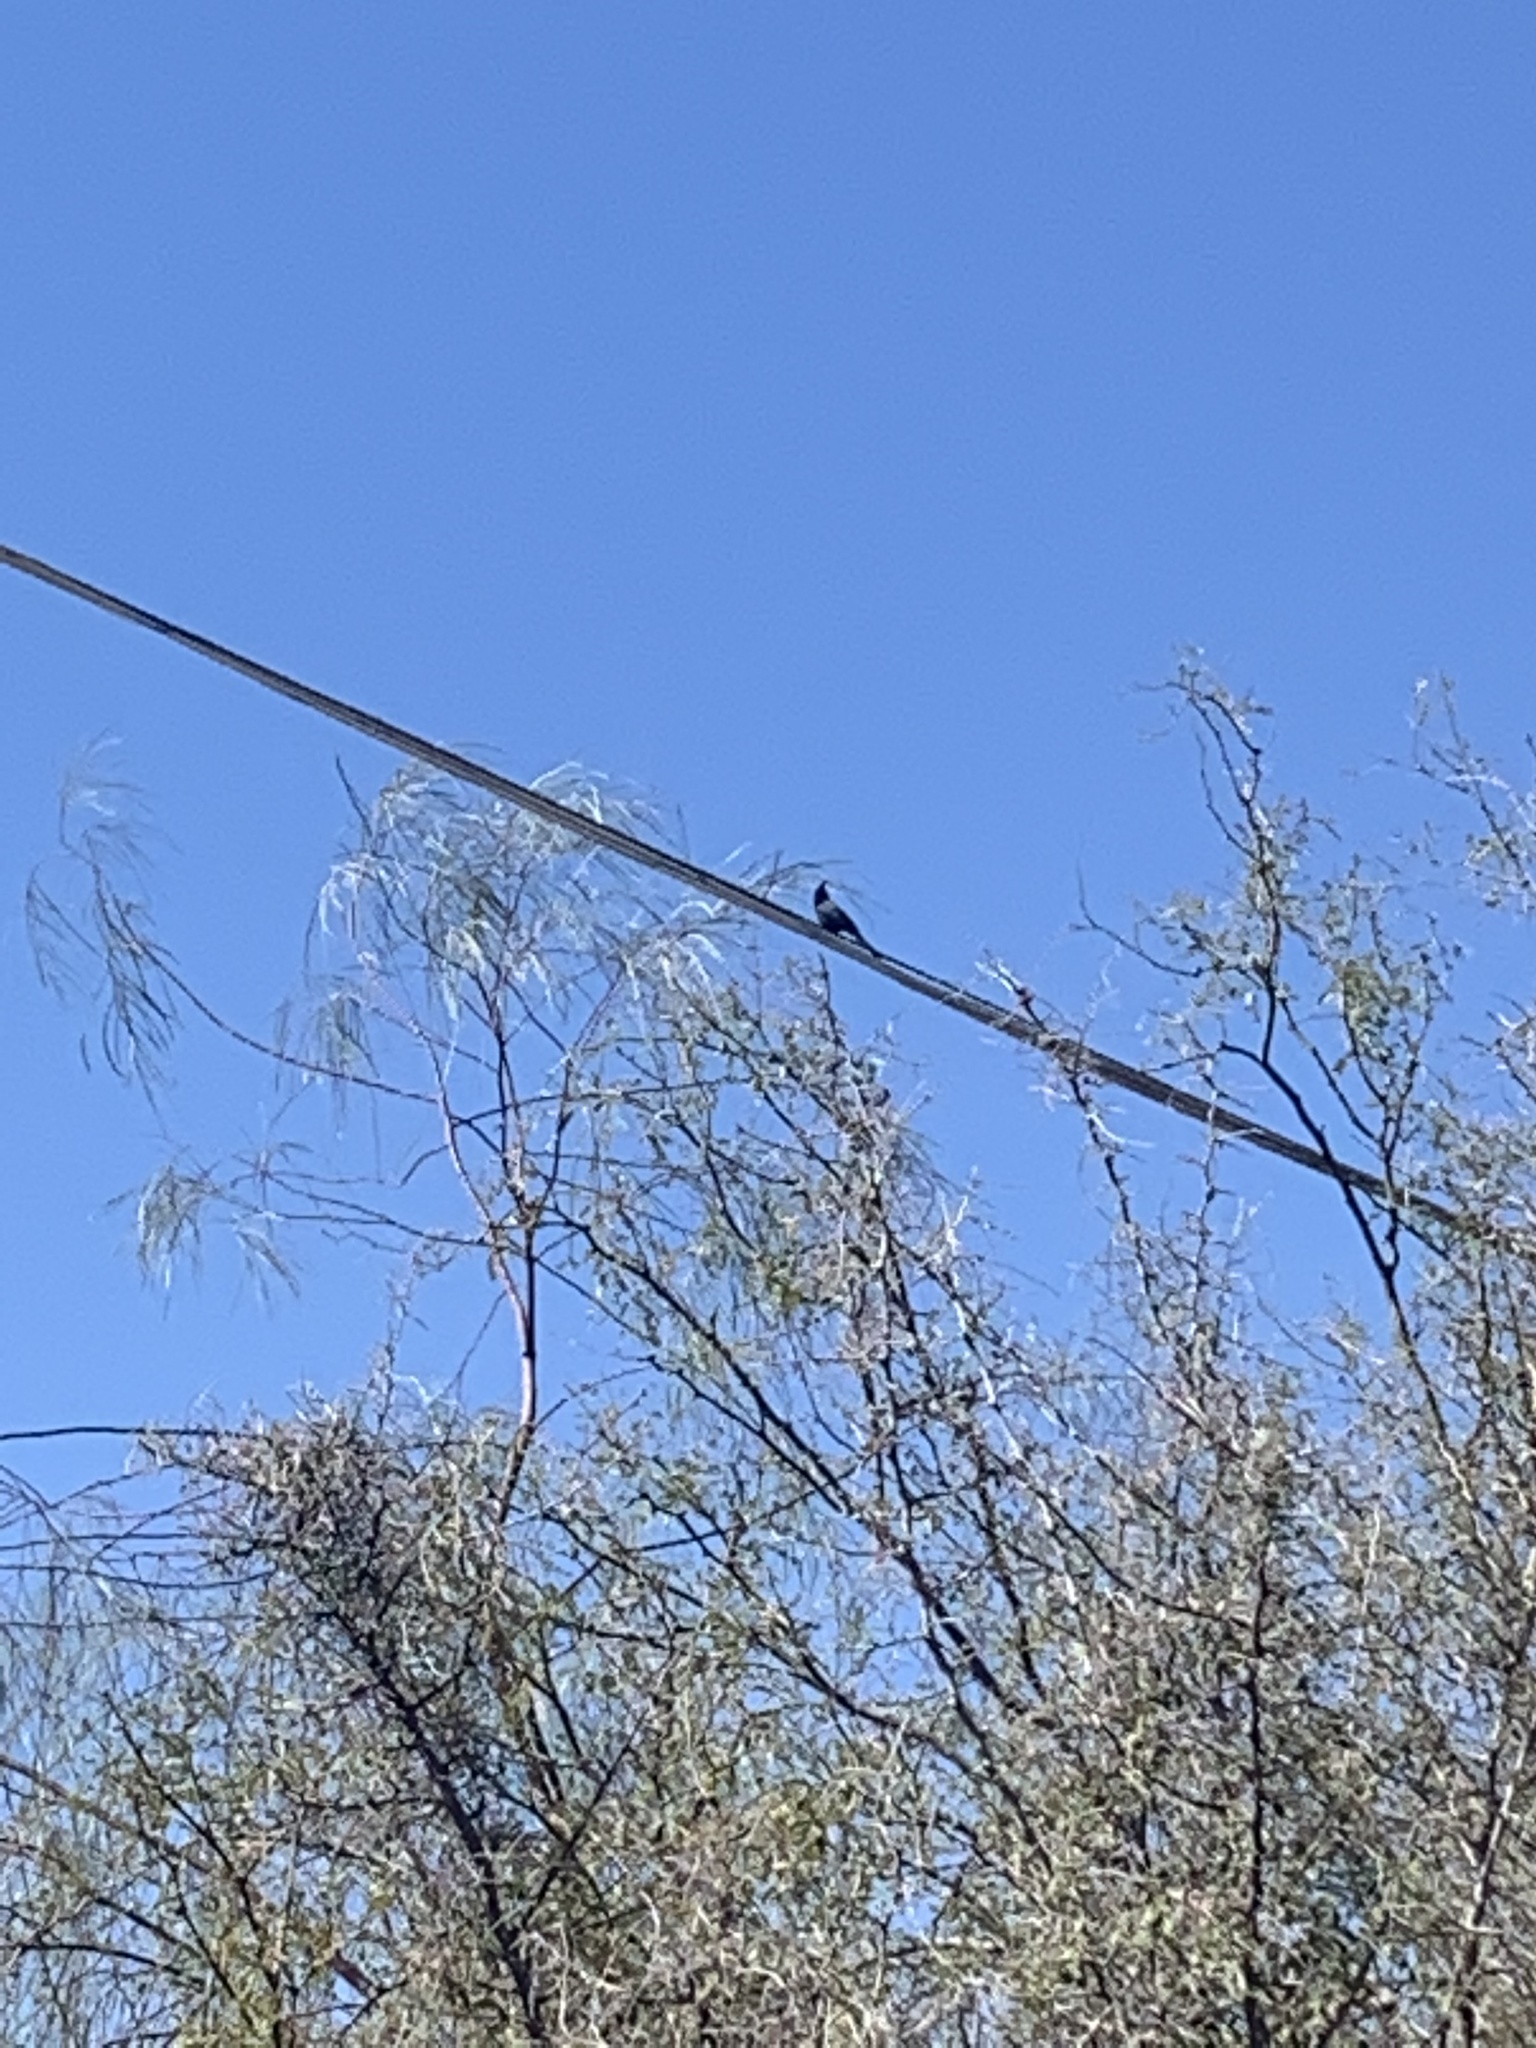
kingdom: Animalia
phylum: Chordata
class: Aves
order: Passeriformes
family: Ptilogonatidae
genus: Phainopepla
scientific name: Phainopepla nitens
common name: Phainopepla
